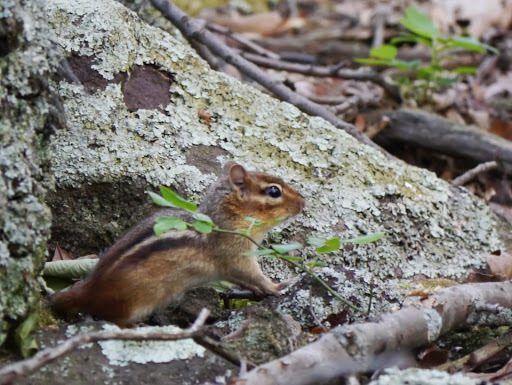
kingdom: Animalia
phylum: Chordata
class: Mammalia
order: Rodentia
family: Sciuridae
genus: Tamias
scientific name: Tamias striatus
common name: Eastern chipmunk
